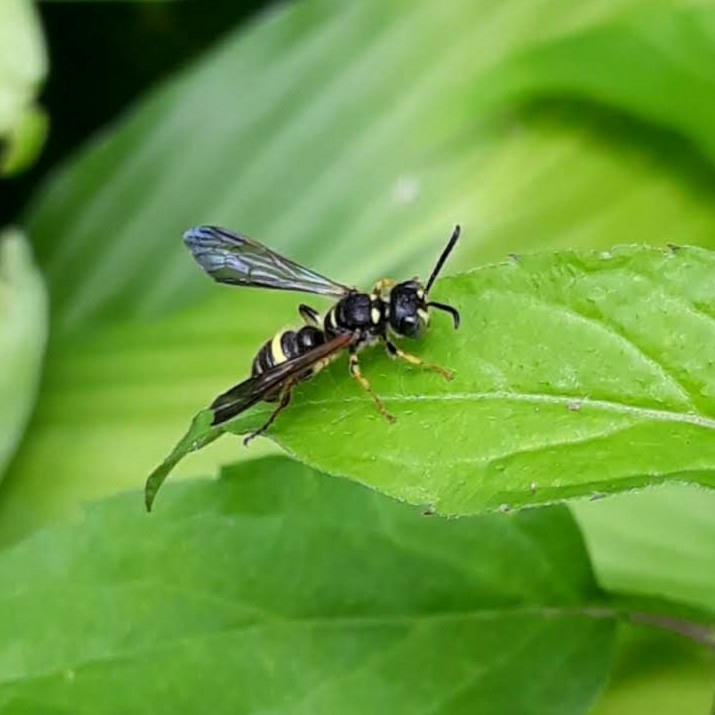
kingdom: Animalia
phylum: Arthropoda
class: Insecta
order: Hymenoptera
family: Crabronidae
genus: Cerceris
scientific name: Cerceris fumipennis
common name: Smokey-winged beetle bandit wasp
